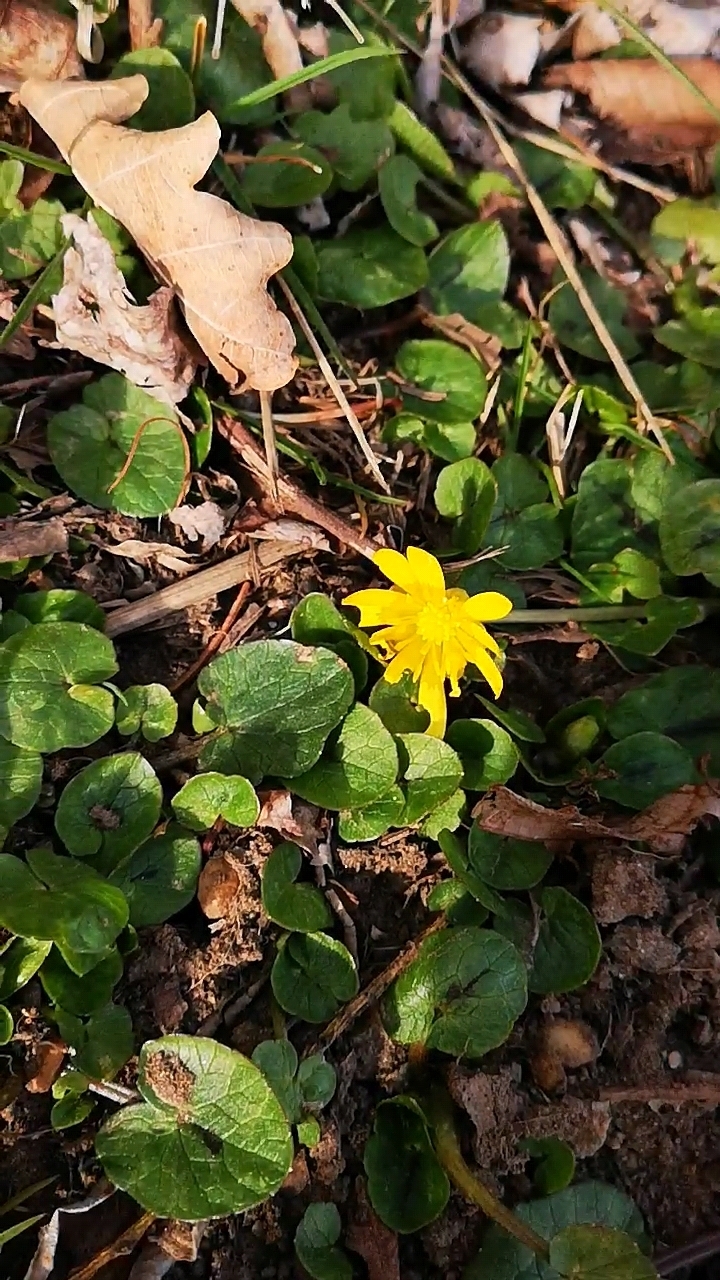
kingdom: Plantae
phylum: Tracheophyta
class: Magnoliopsida
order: Ranunculales
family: Ranunculaceae
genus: Ficaria
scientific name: Ficaria verna
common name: Lesser celandine
